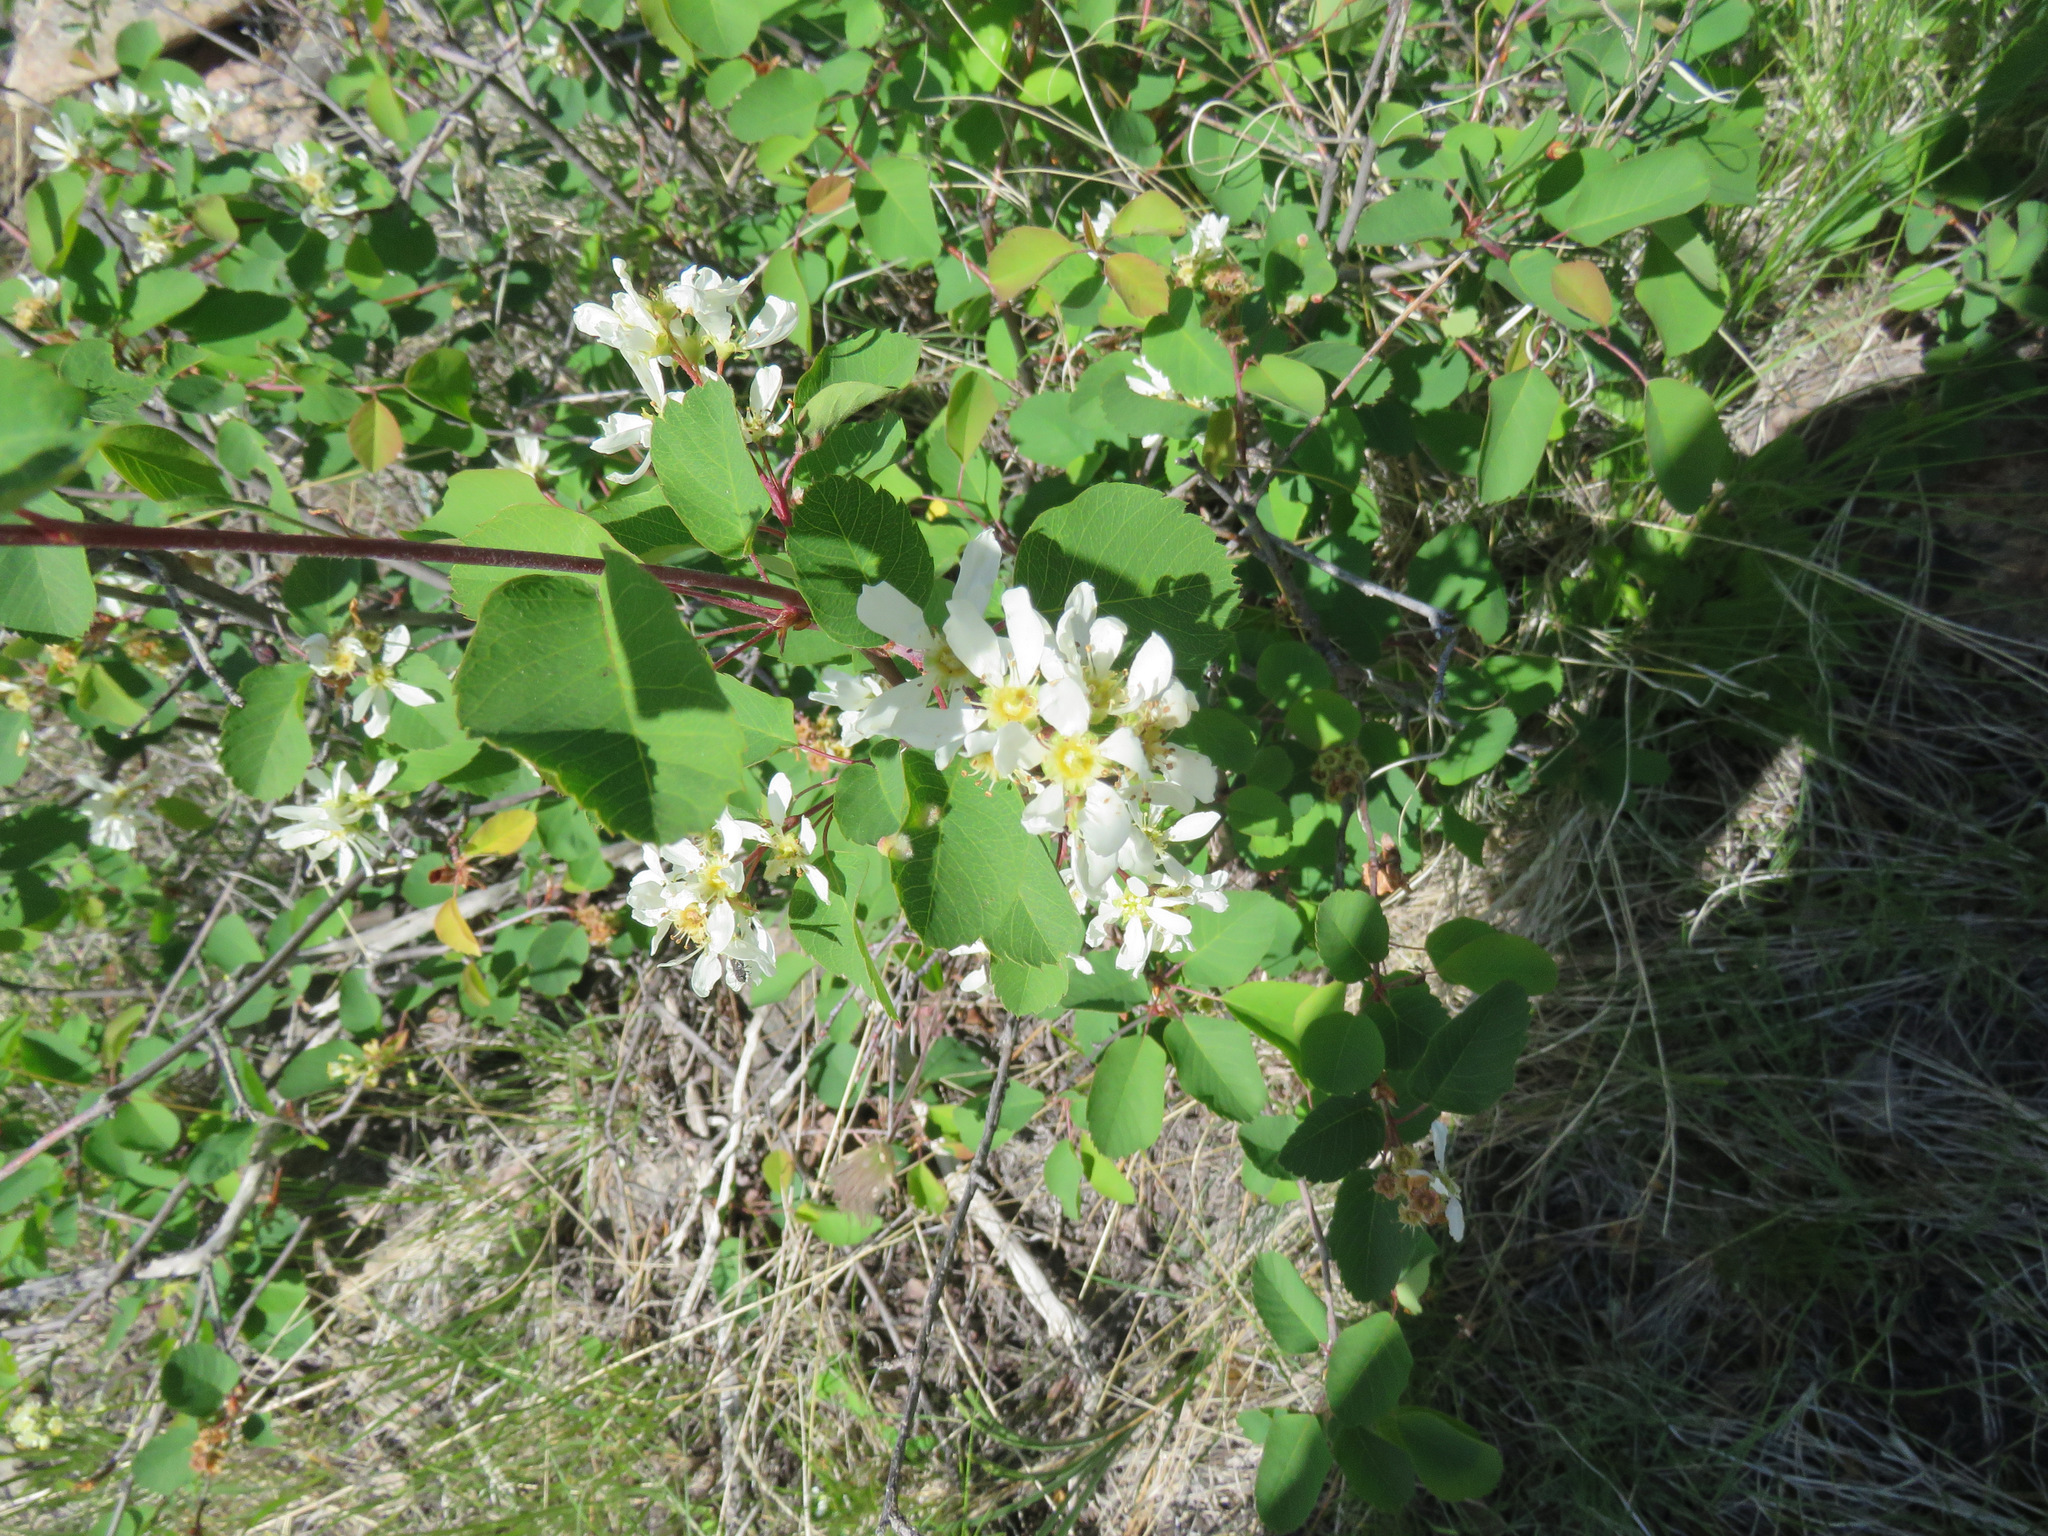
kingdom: Plantae
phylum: Tracheophyta
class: Magnoliopsida
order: Rosales
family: Rosaceae
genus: Amelanchier
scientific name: Amelanchier alnifolia
